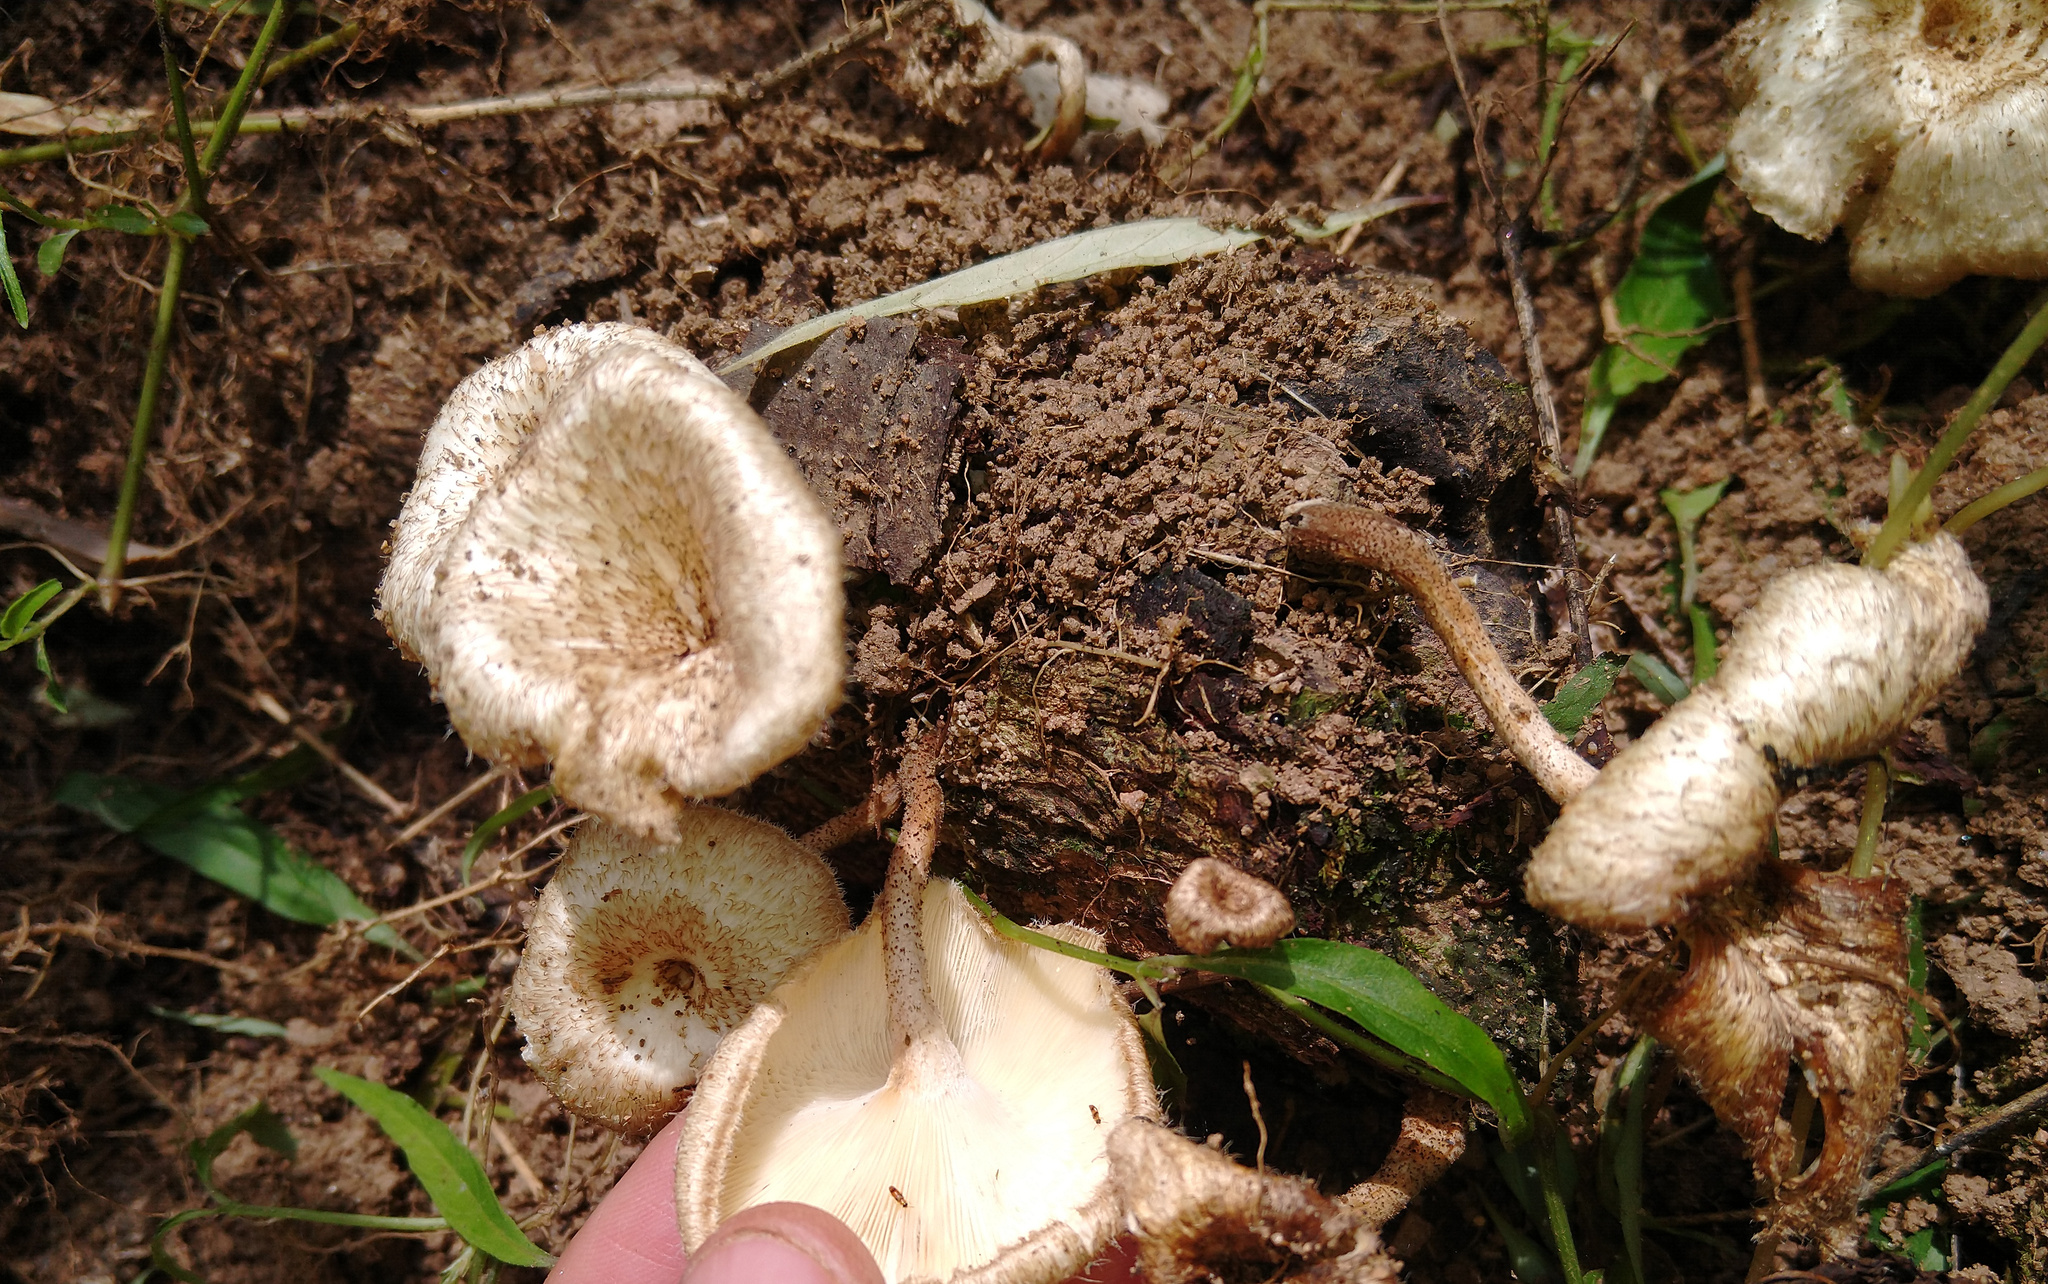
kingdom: Fungi
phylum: Basidiomycota
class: Agaricomycetes
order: Polyporales
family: Polyporaceae
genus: Lentinus
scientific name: Lentinus crinitus
